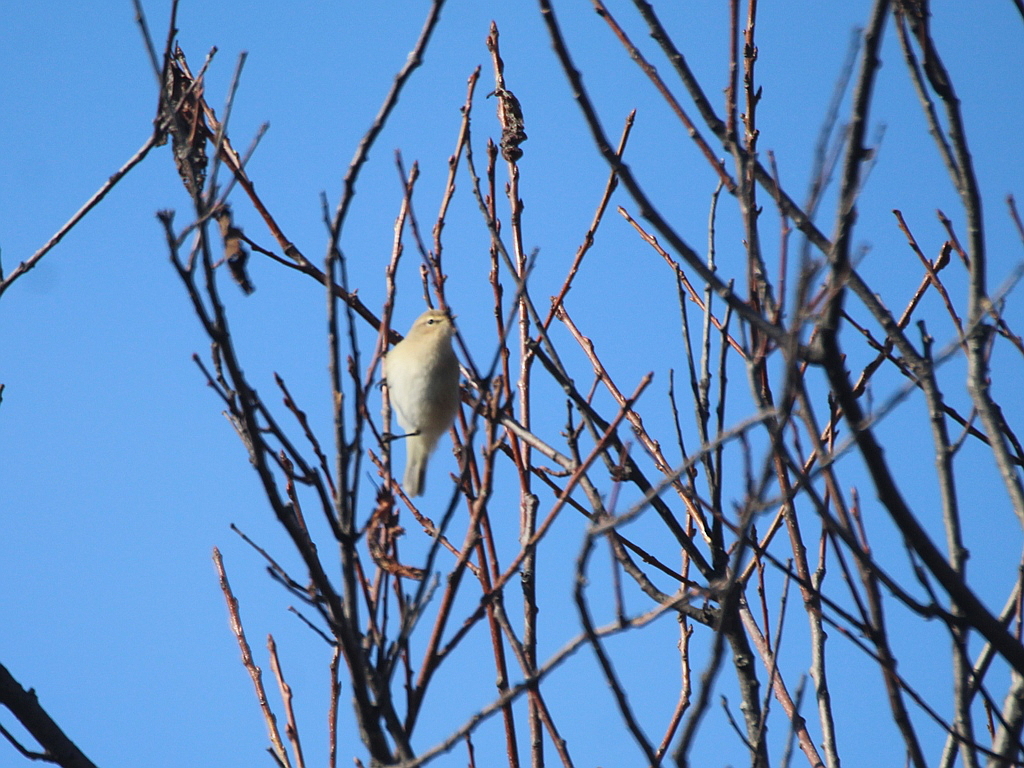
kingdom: Animalia
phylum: Chordata
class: Aves
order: Passeriformes
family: Phylloscopidae
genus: Phylloscopus
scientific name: Phylloscopus collybita
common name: Common chiffchaff
